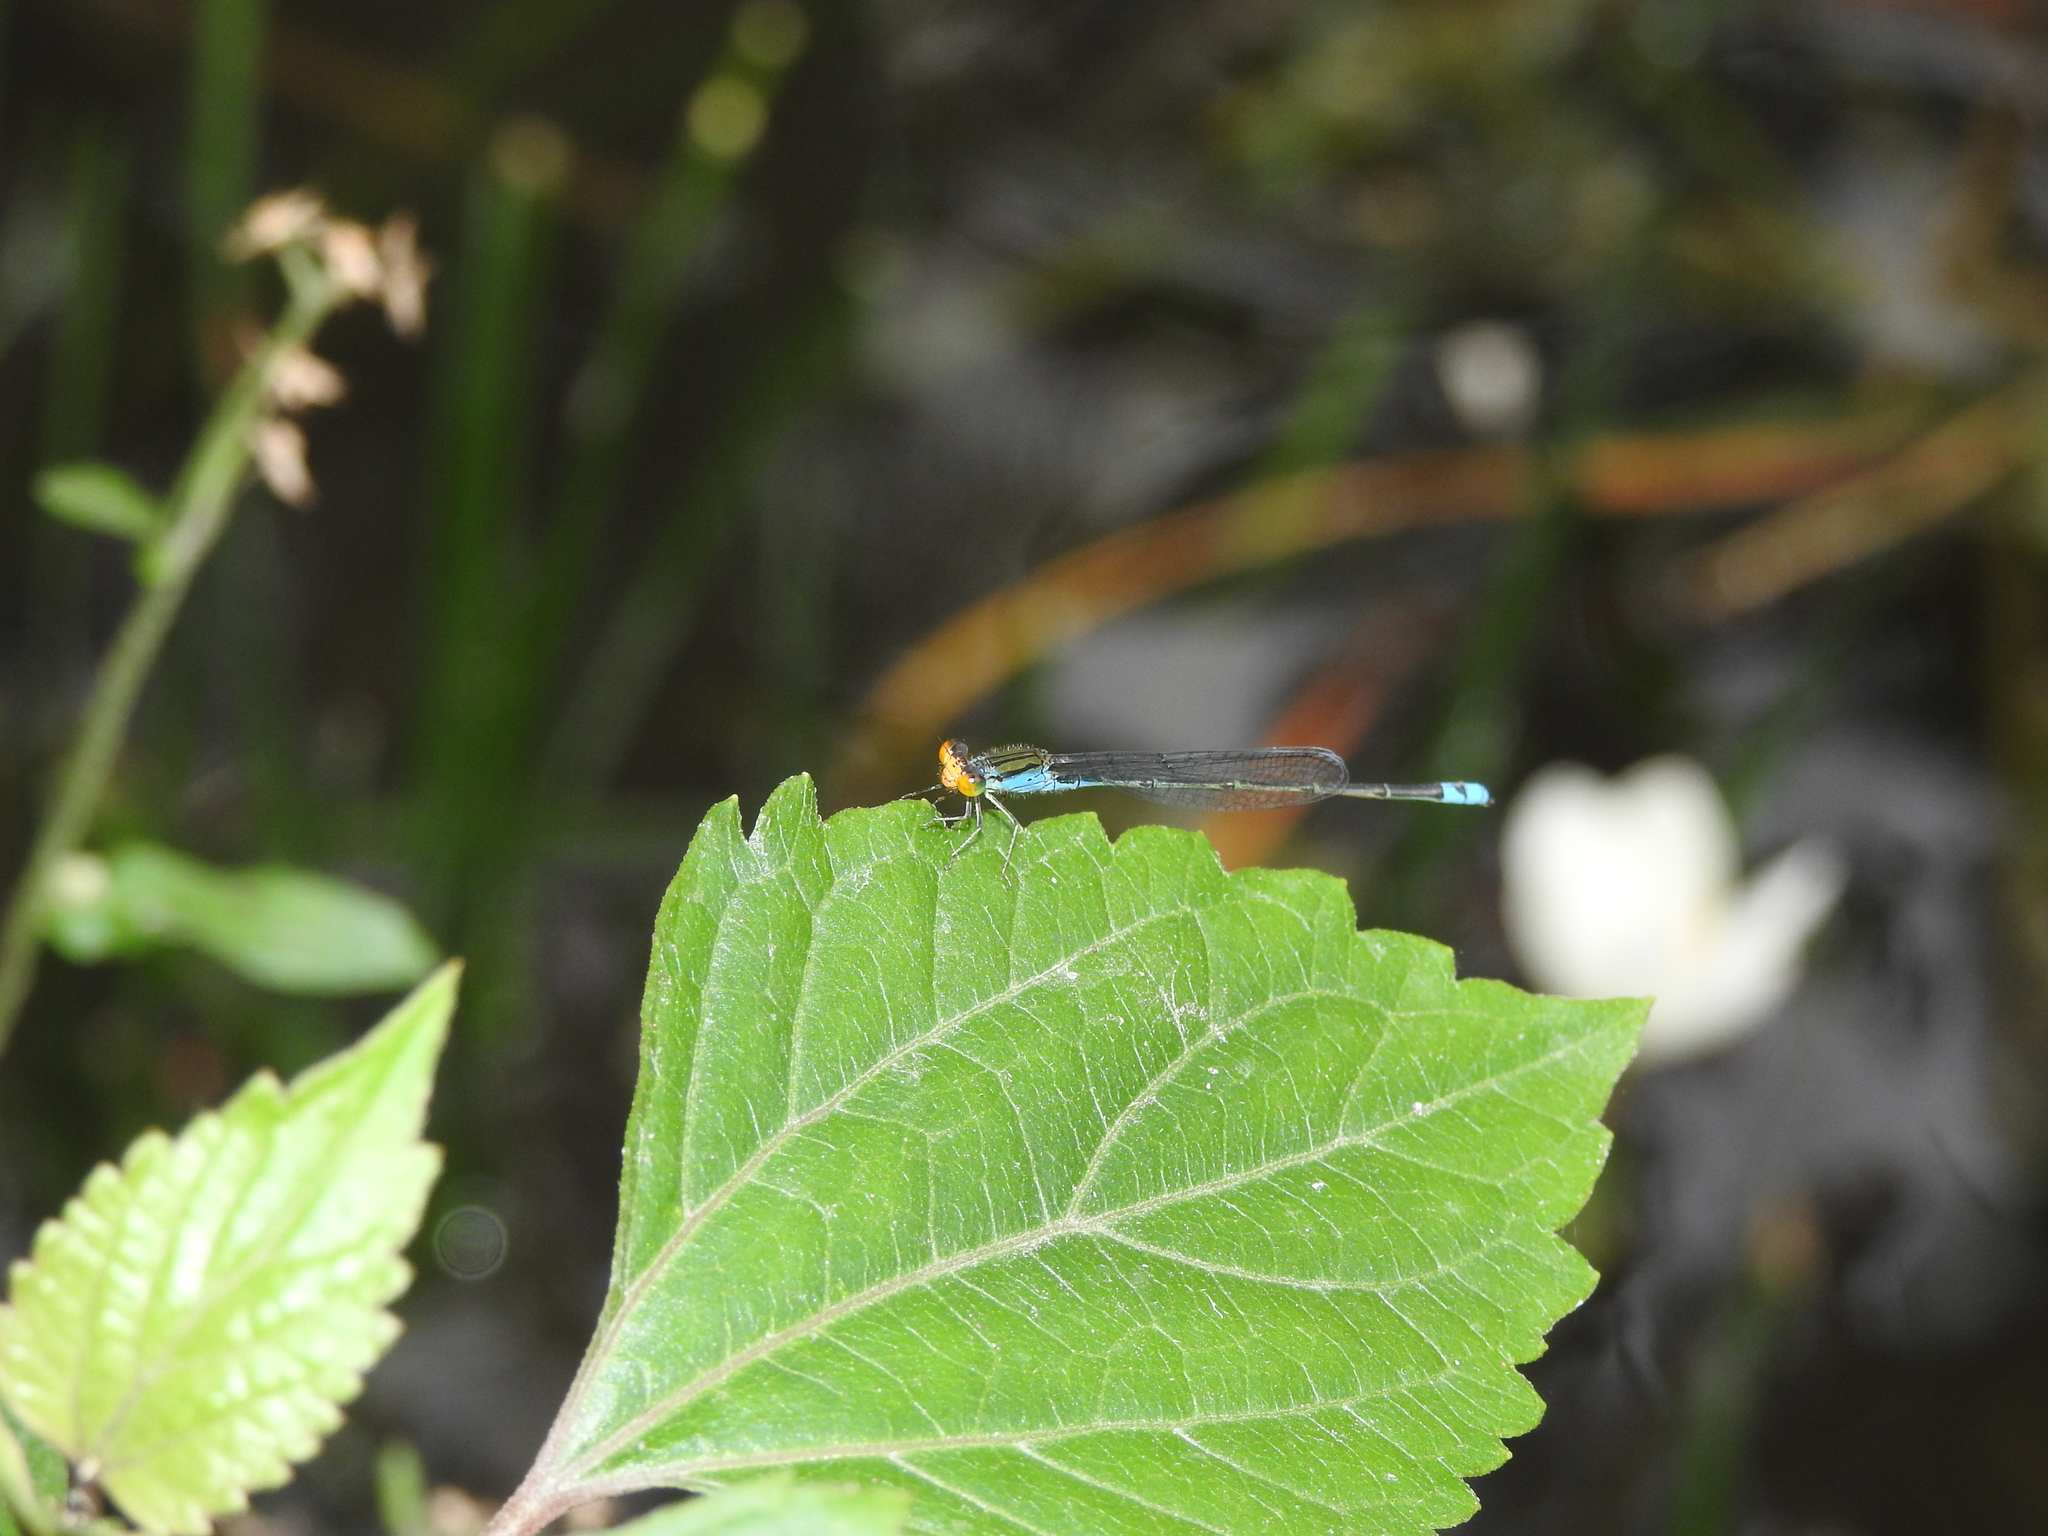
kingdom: Animalia
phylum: Arthropoda
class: Insecta
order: Odonata
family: Coenagrionidae
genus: Pseudagrion
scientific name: Pseudagrion rubriceps
